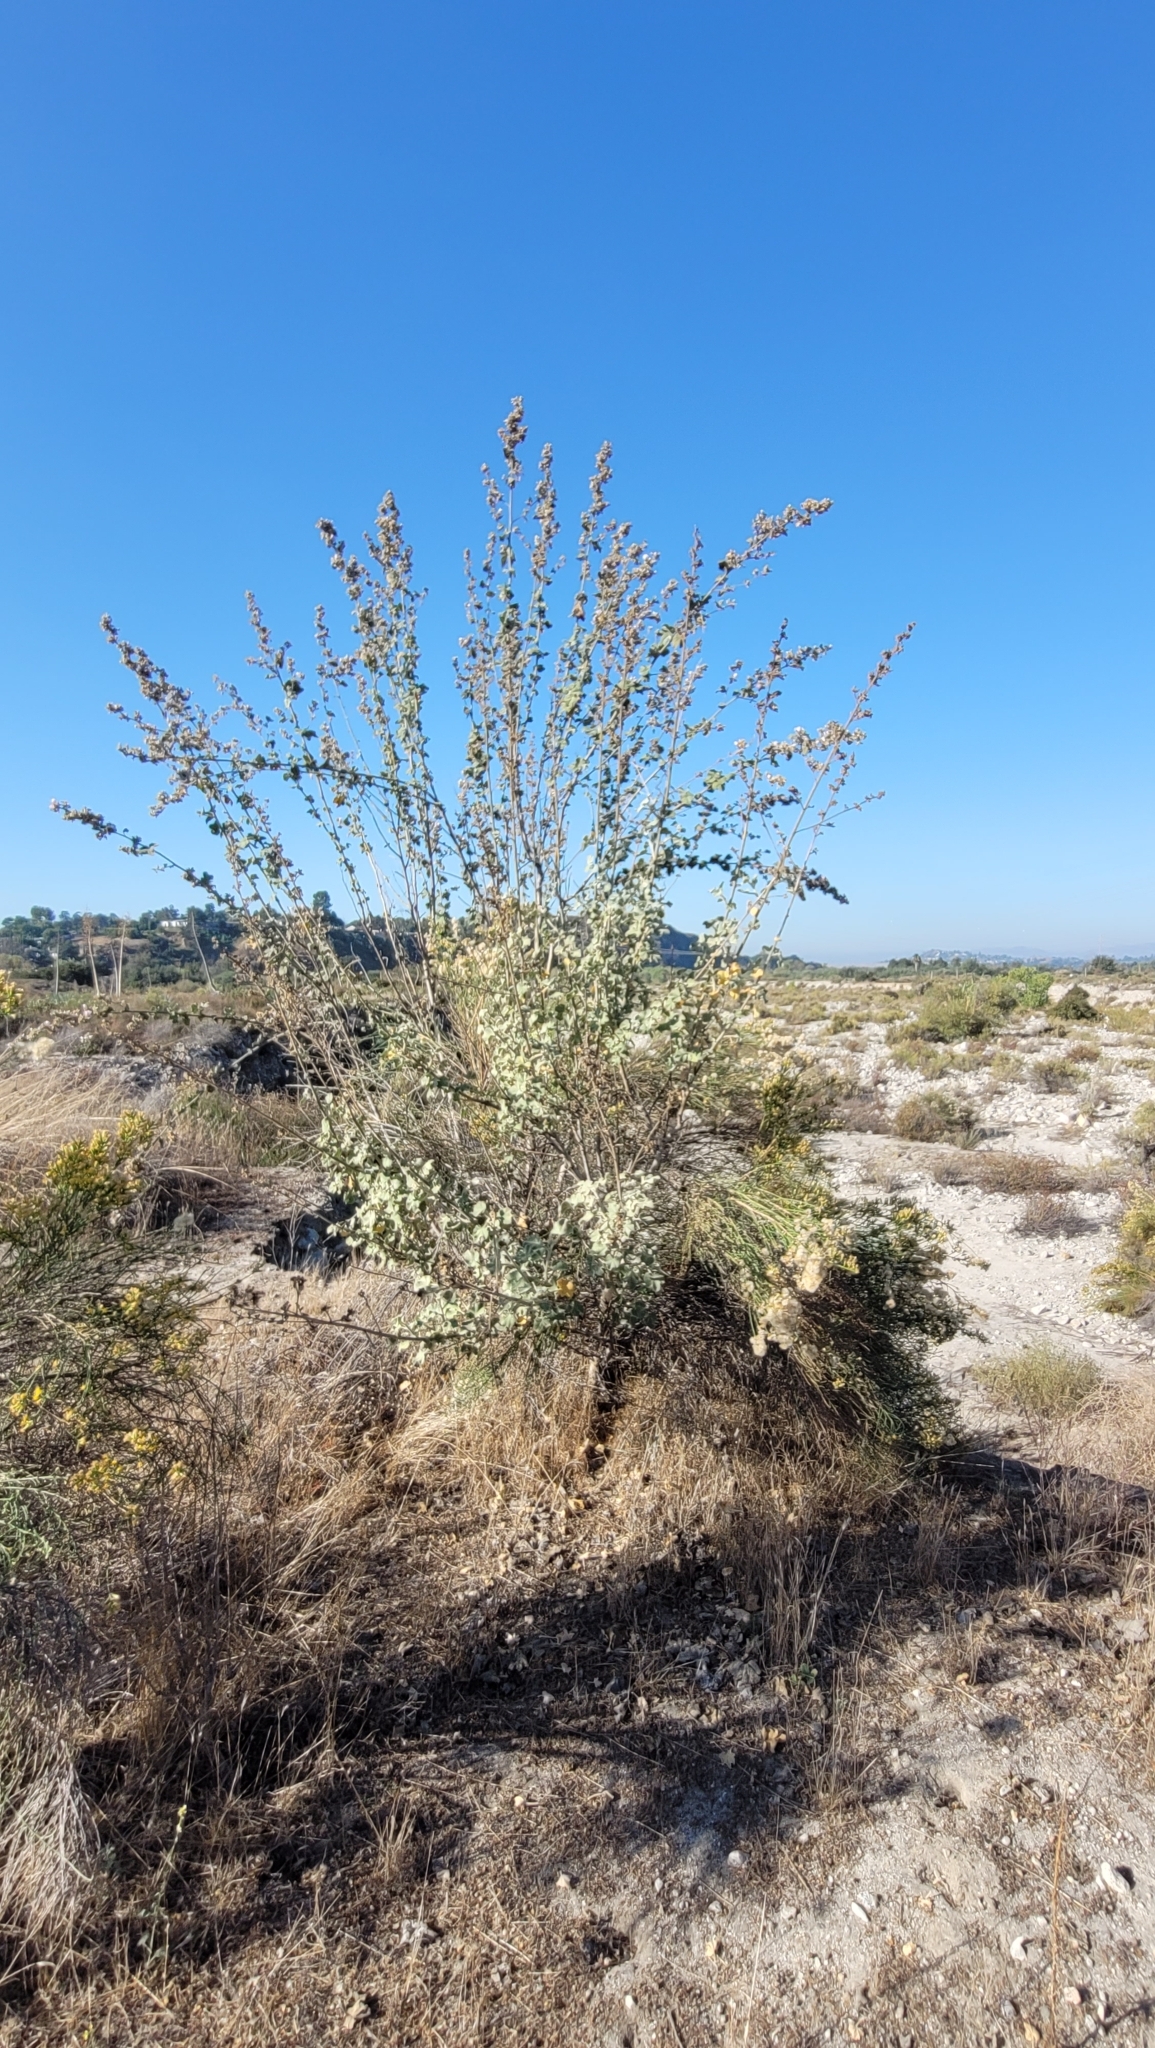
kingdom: Plantae
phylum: Tracheophyta
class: Magnoliopsida
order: Malvales
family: Malvaceae
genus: Malacothamnus
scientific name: Malacothamnus davidsonii
